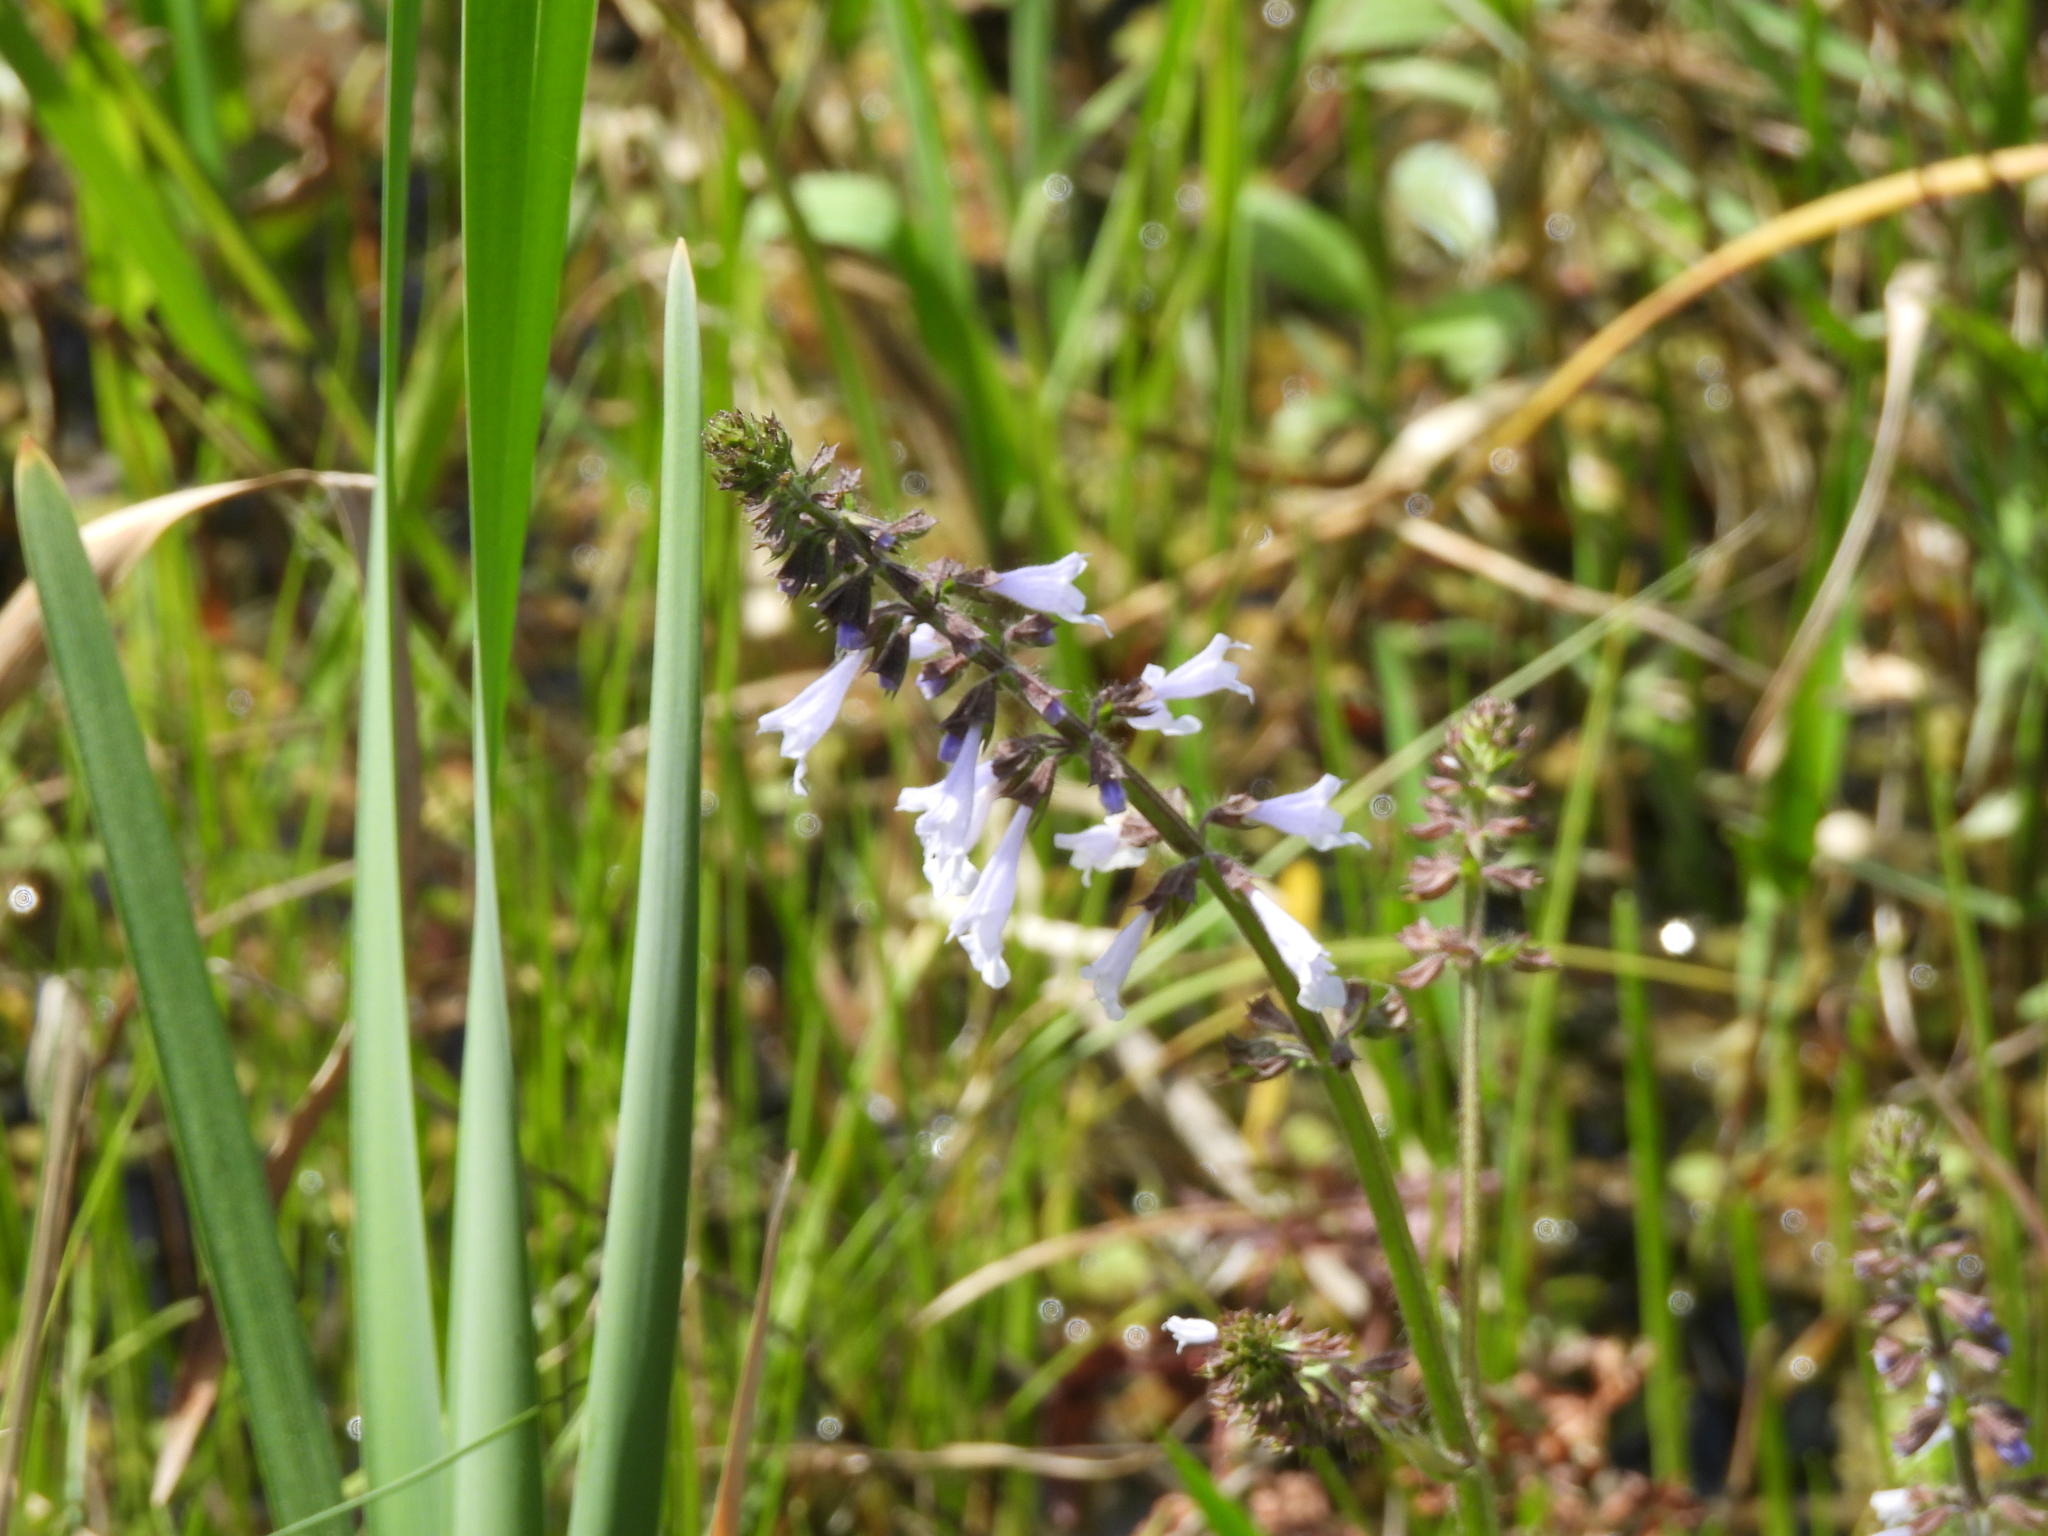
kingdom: Plantae
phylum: Tracheophyta
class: Magnoliopsida
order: Lamiales
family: Lamiaceae
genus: Salvia
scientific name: Salvia lyrata
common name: Cancerweed
